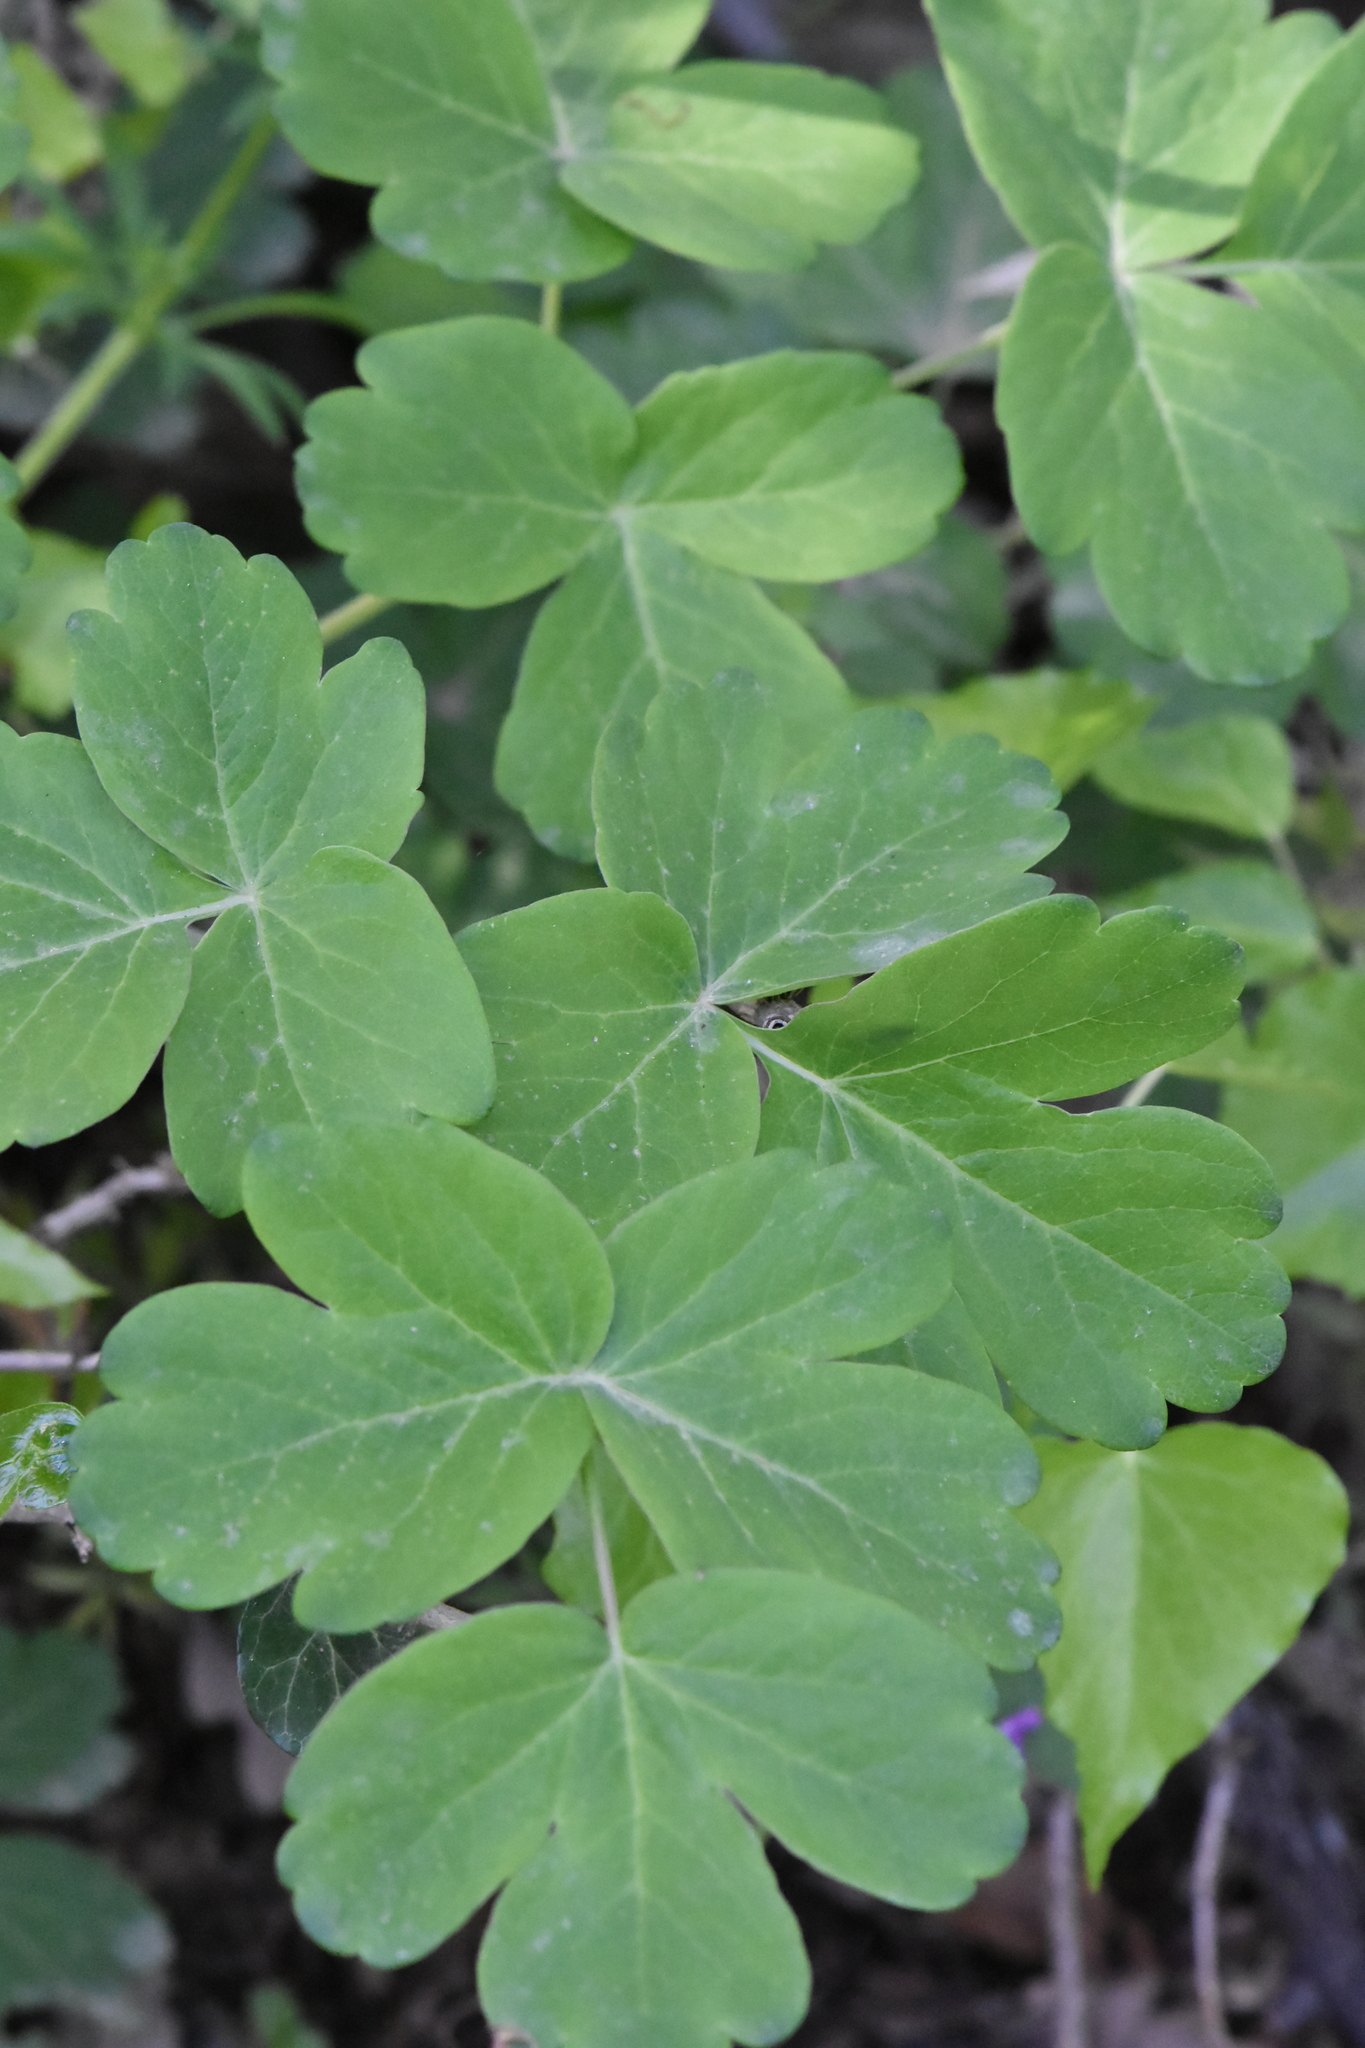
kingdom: Plantae
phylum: Tracheophyta
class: Magnoliopsida
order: Apiales
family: Apiaceae
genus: Laser
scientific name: Laser trilobum
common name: Laser
